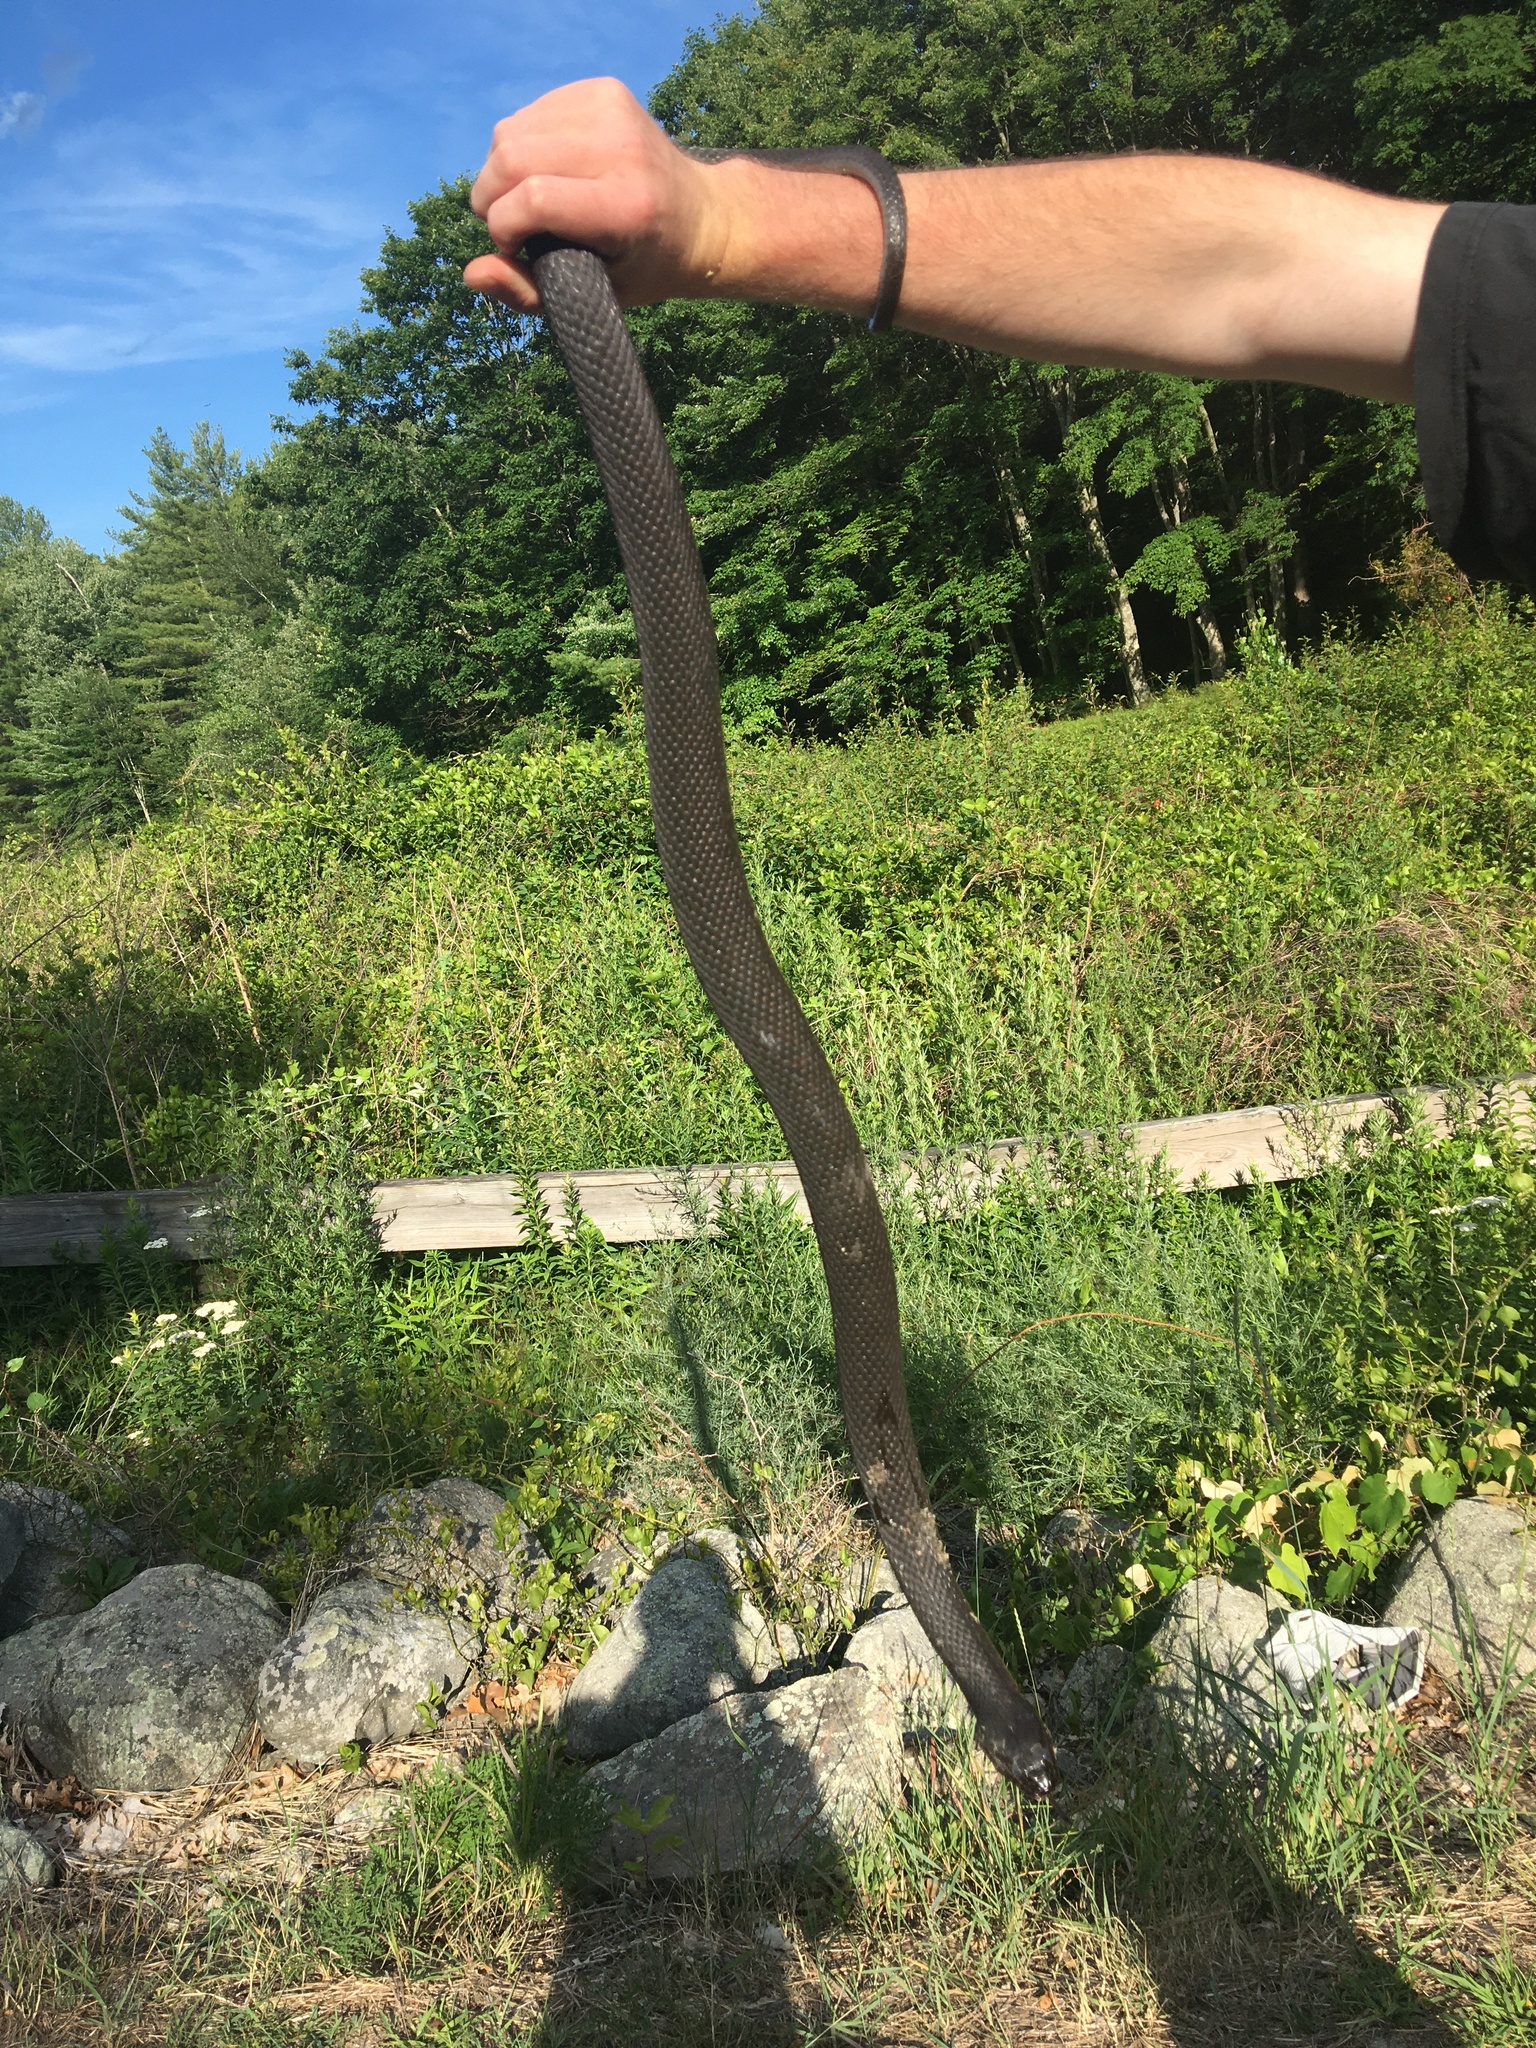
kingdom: Animalia
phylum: Chordata
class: Squamata
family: Colubridae
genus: Nerodia
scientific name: Nerodia sipedon
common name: Northern water snake
